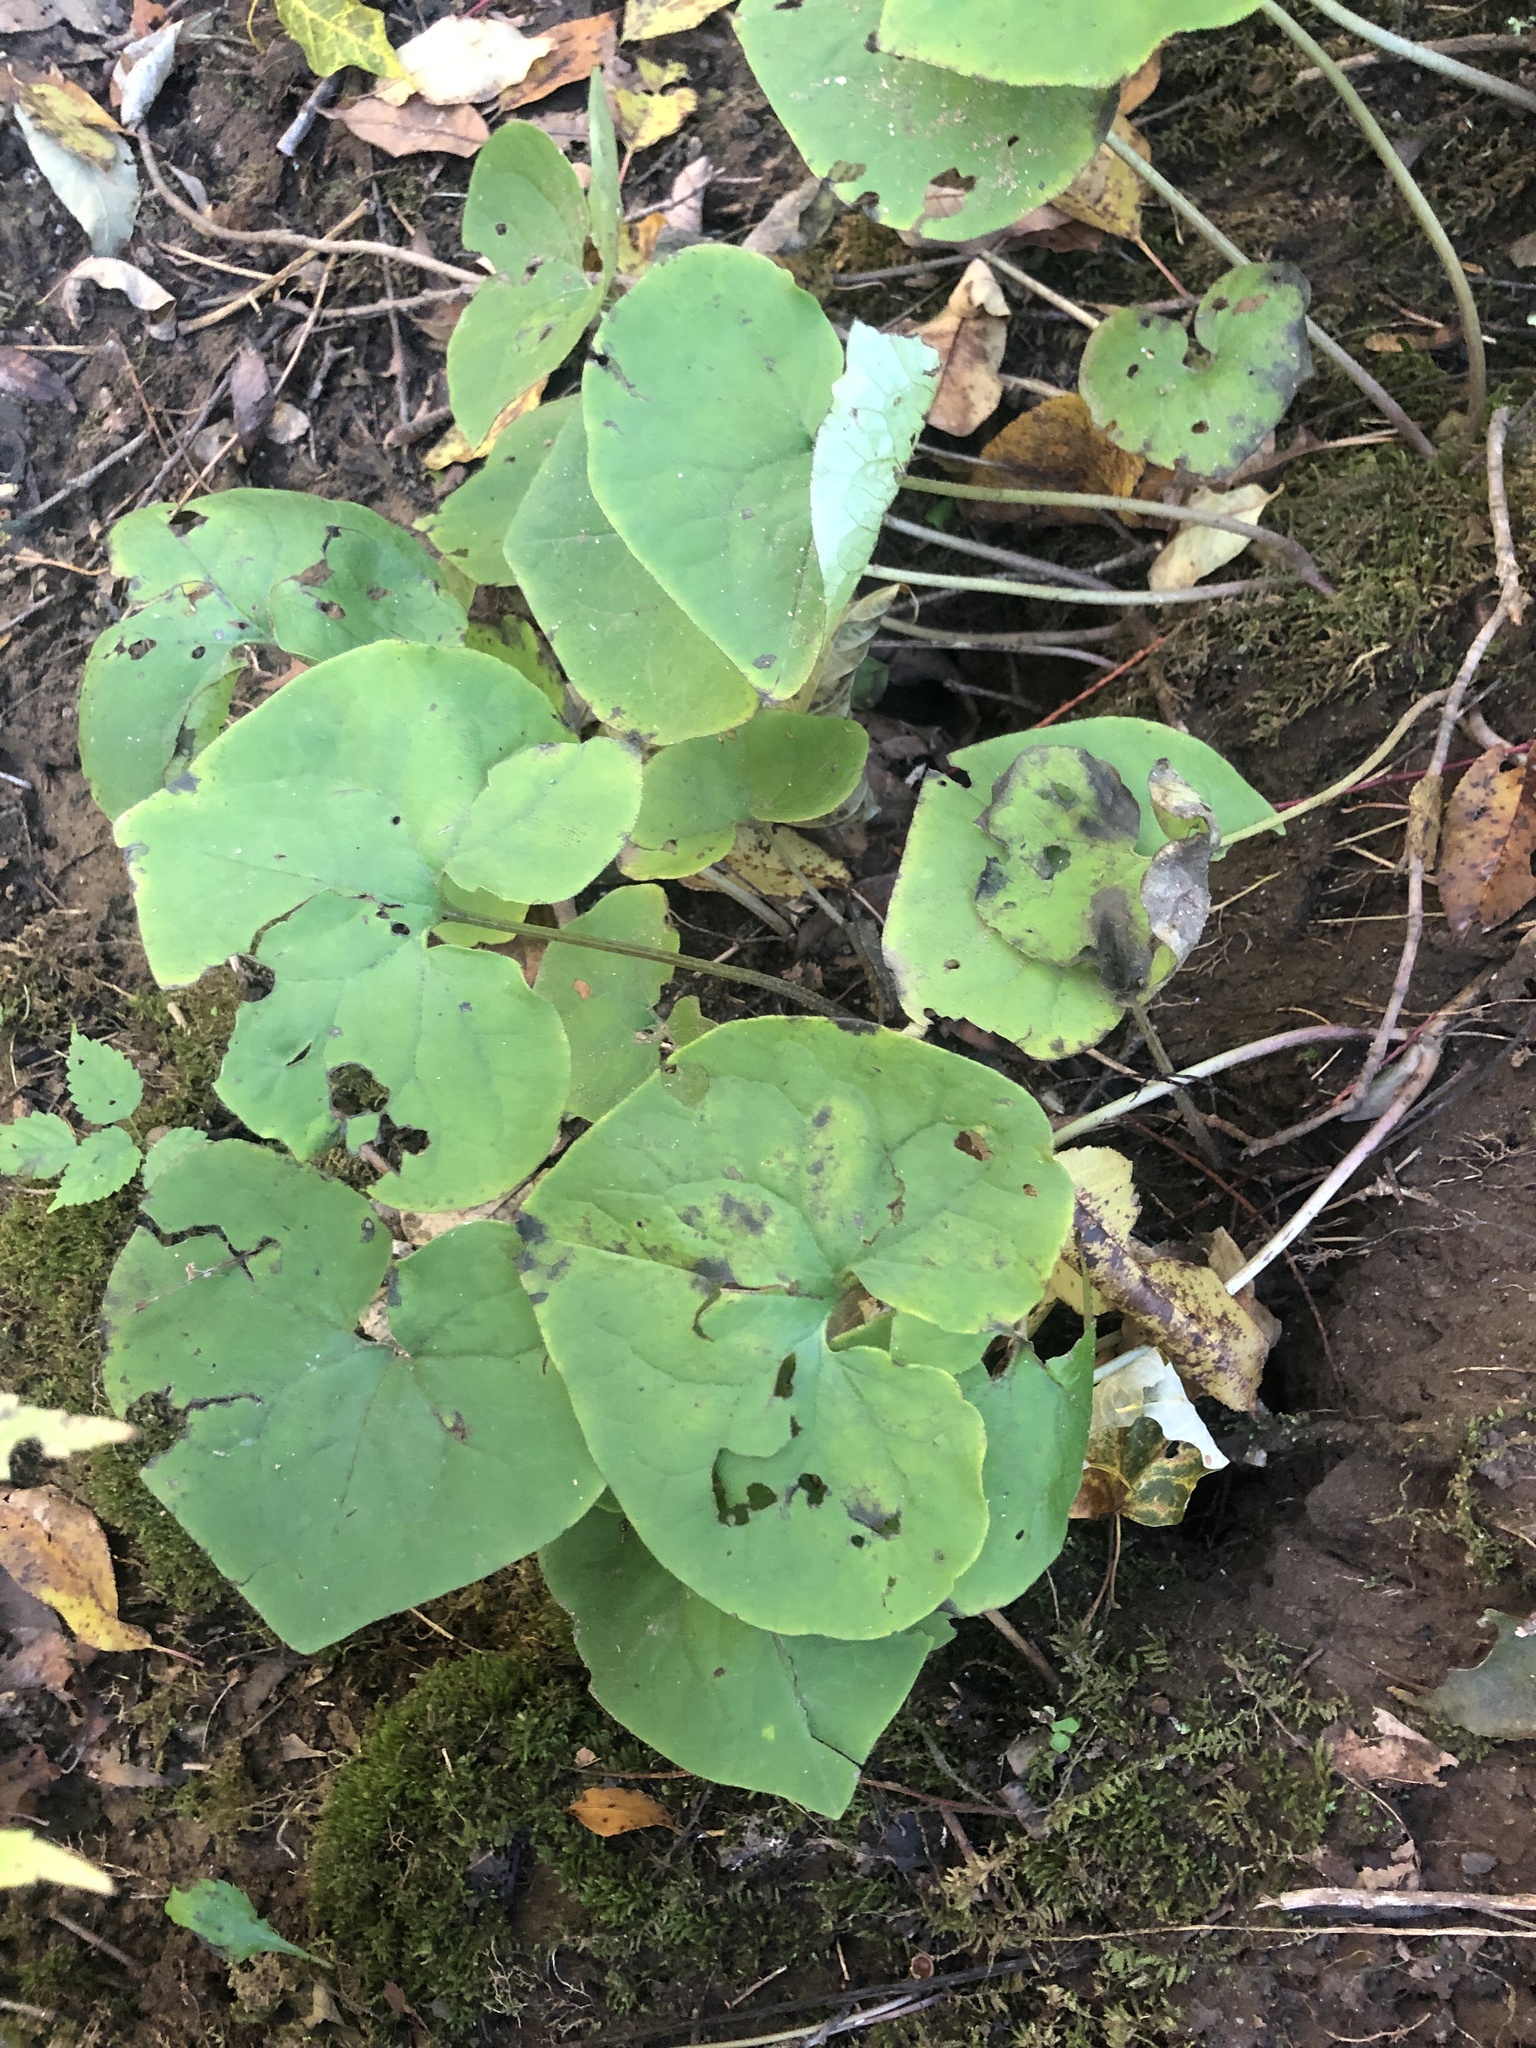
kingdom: Plantae
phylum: Tracheophyta
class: Magnoliopsida
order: Piperales
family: Aristolochiaceae
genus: Asarum
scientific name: Asarum canadense
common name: Wild ginger
